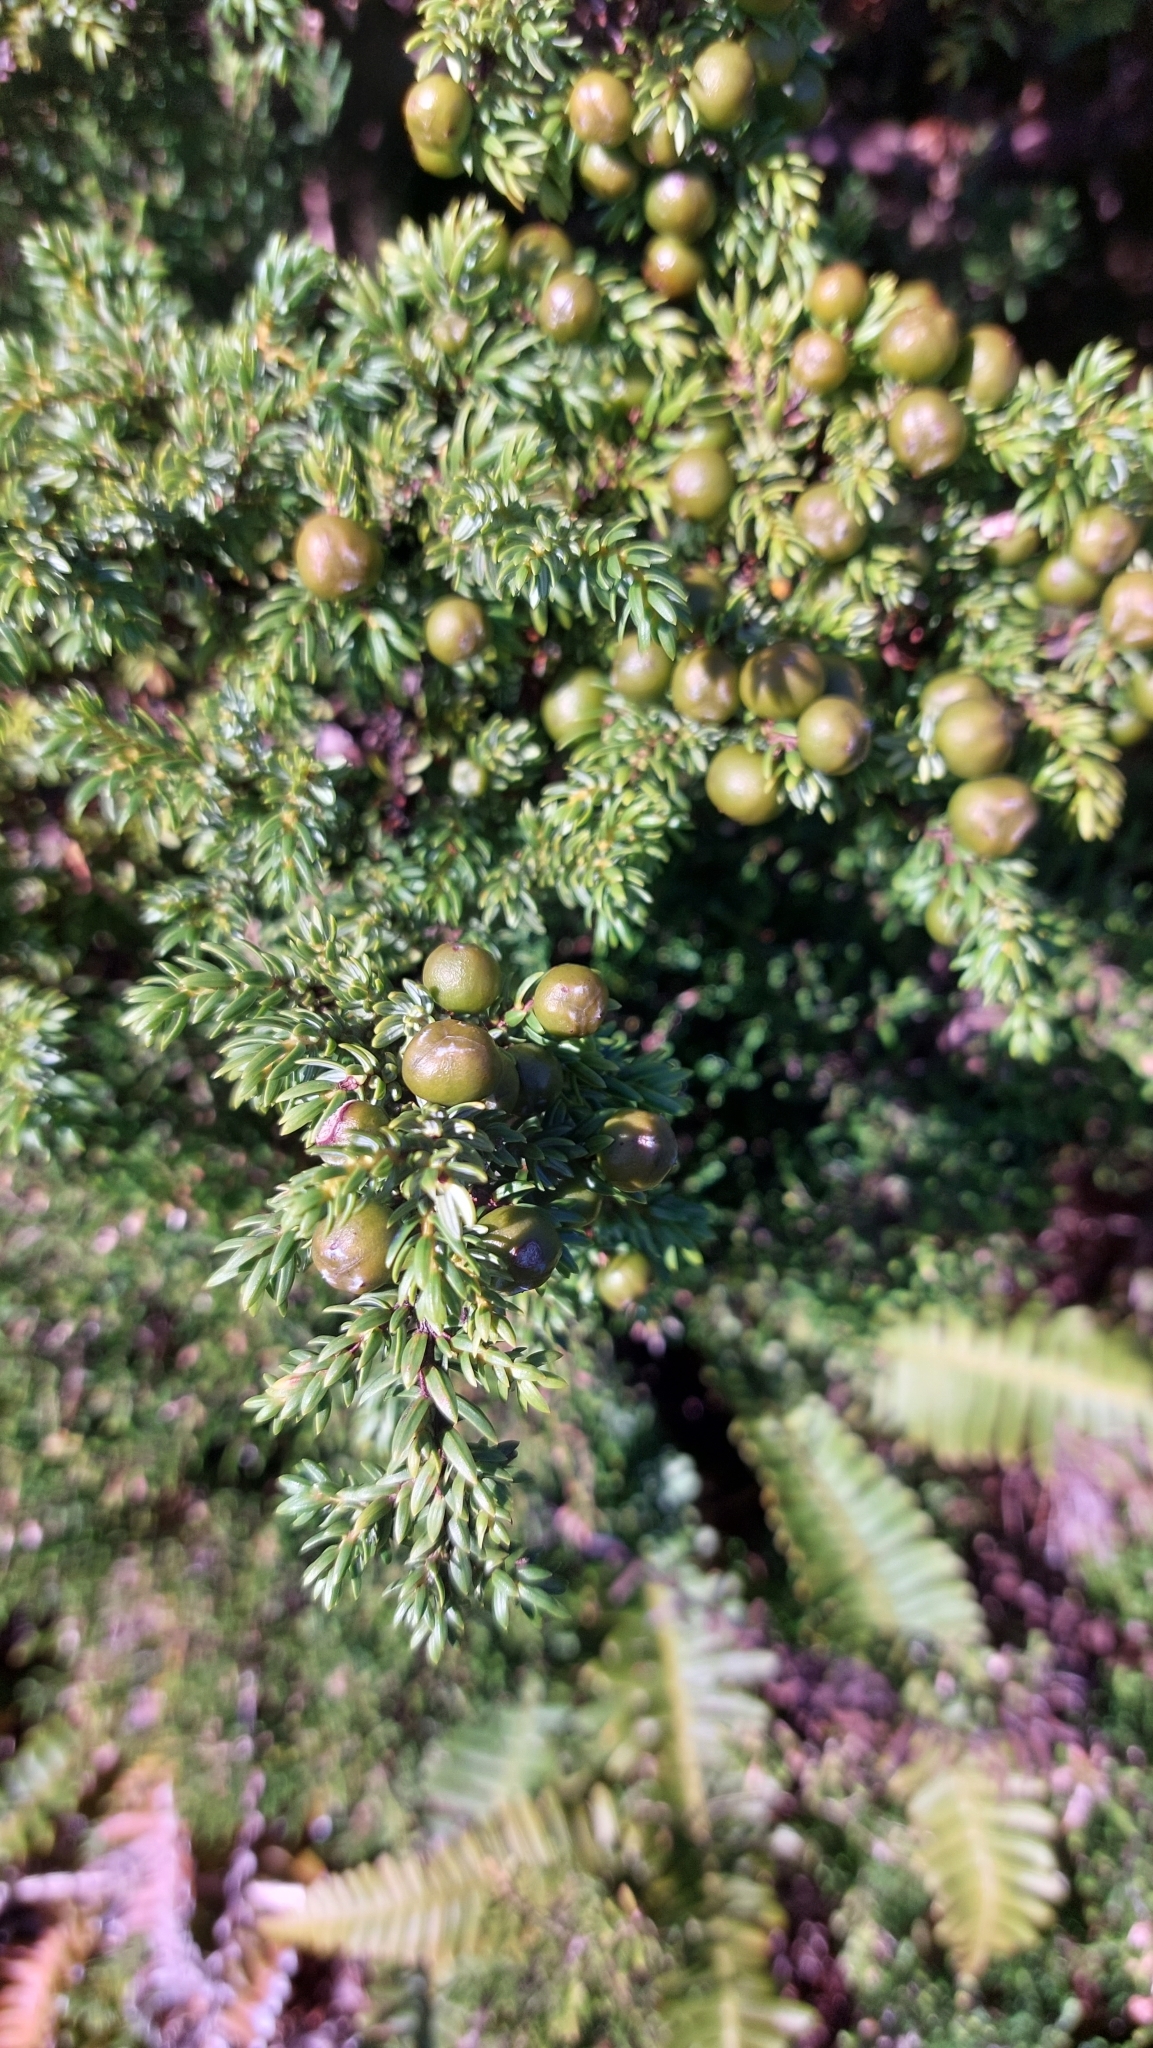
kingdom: Plantae
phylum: Tracheophyta
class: Pinopsida
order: Pinales
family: Cupressaceae
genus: Juniperus
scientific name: Juniperus brevifolia
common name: Azores juniper
